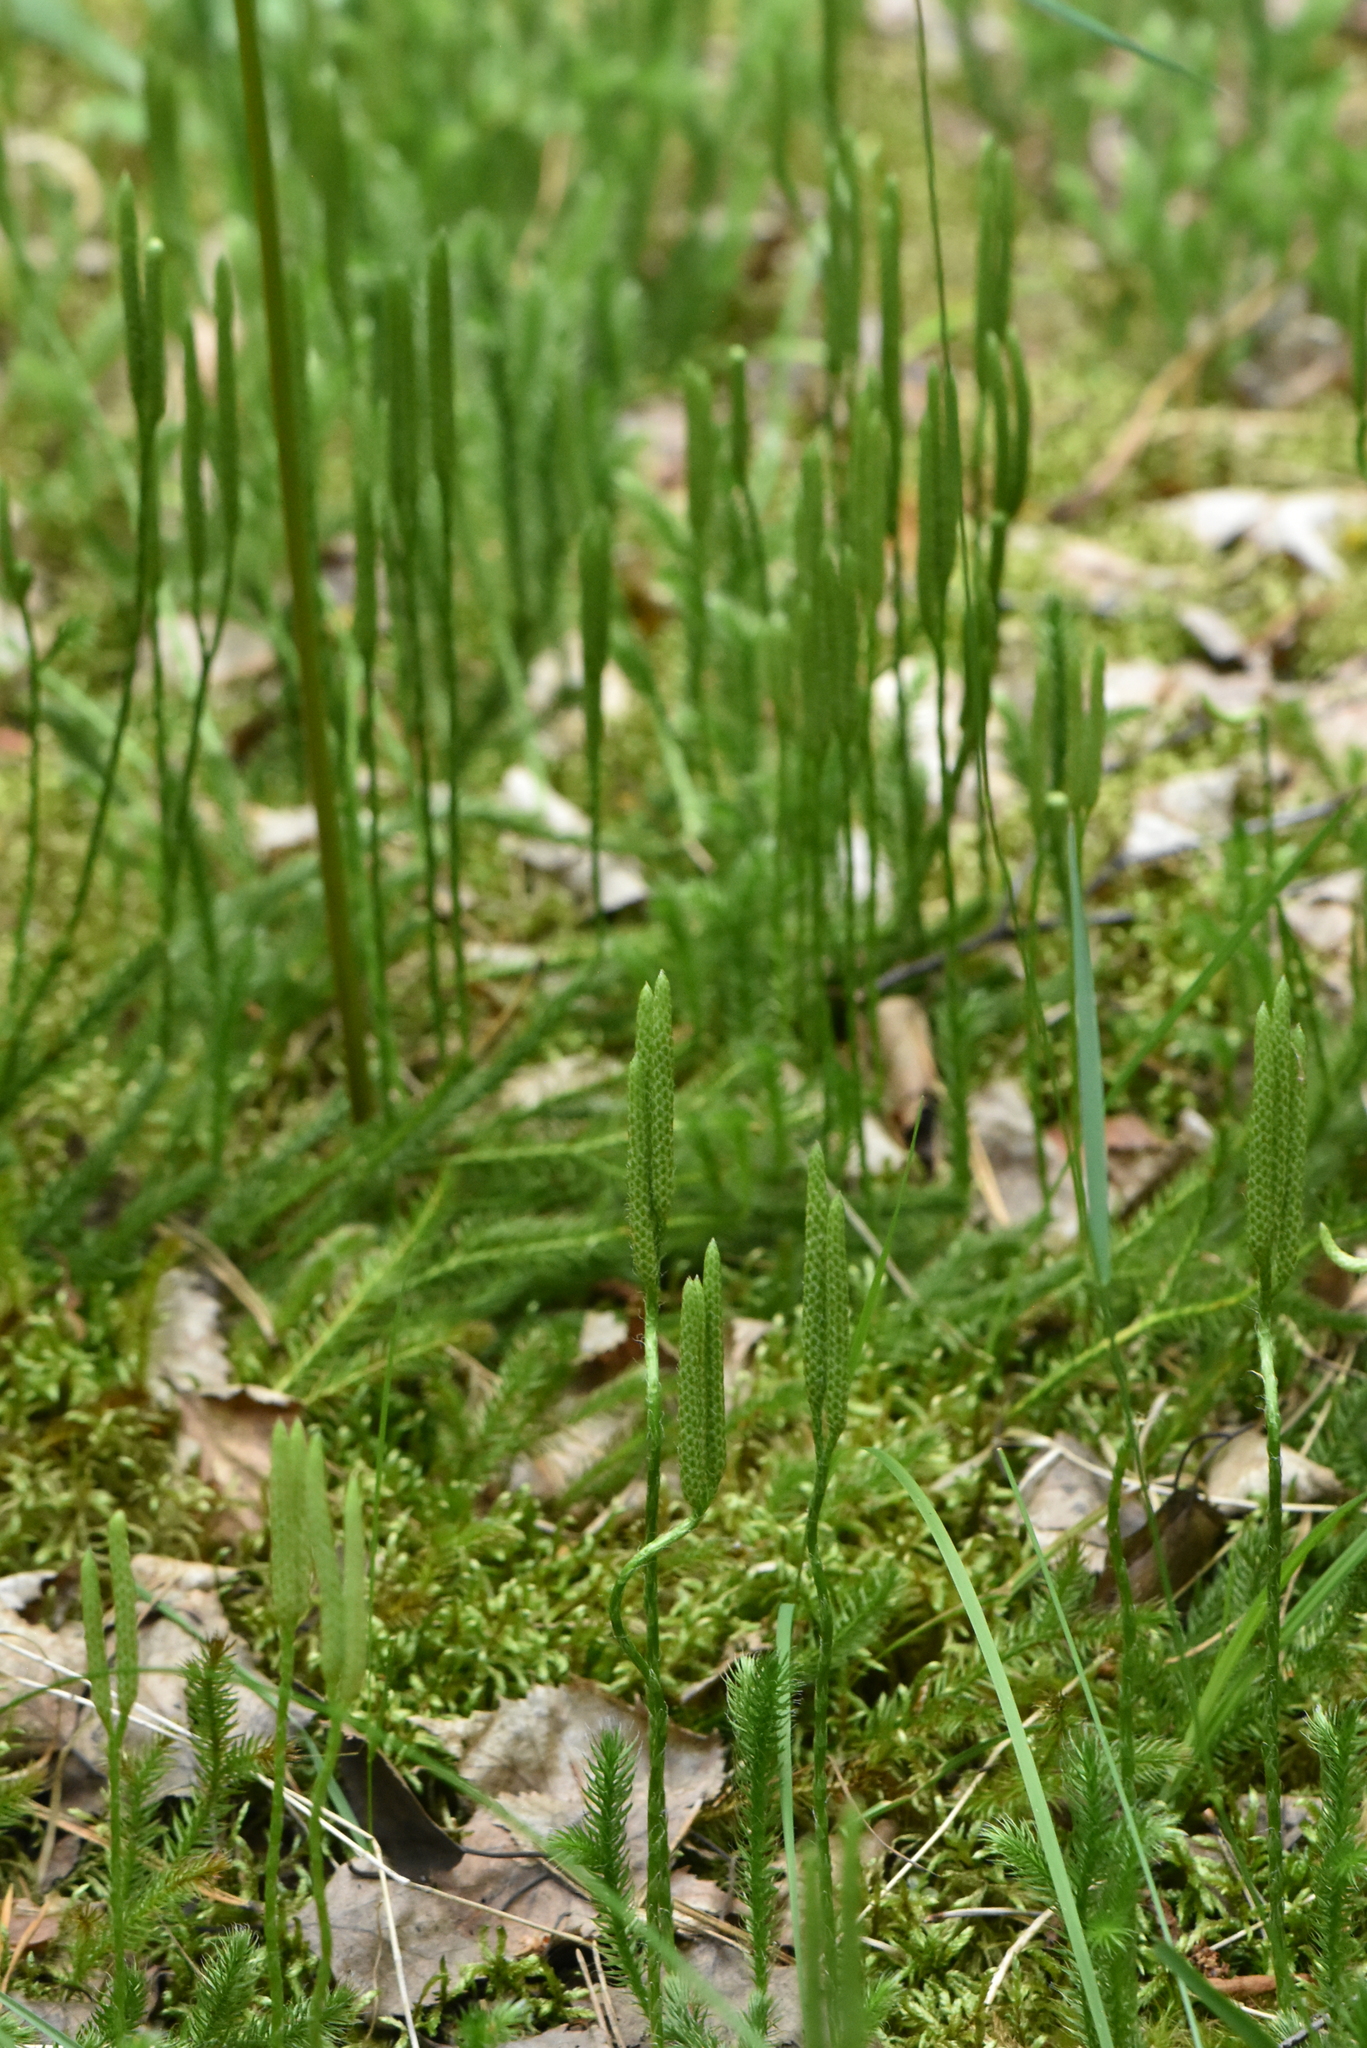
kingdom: Plantae
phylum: Tracheophyta
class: Lycopodiopsida
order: Lycopodiales
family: Lycopodiaceae
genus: Lycopodium
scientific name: Lycopodium clavatum
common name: Stag's-horn clubmoss
